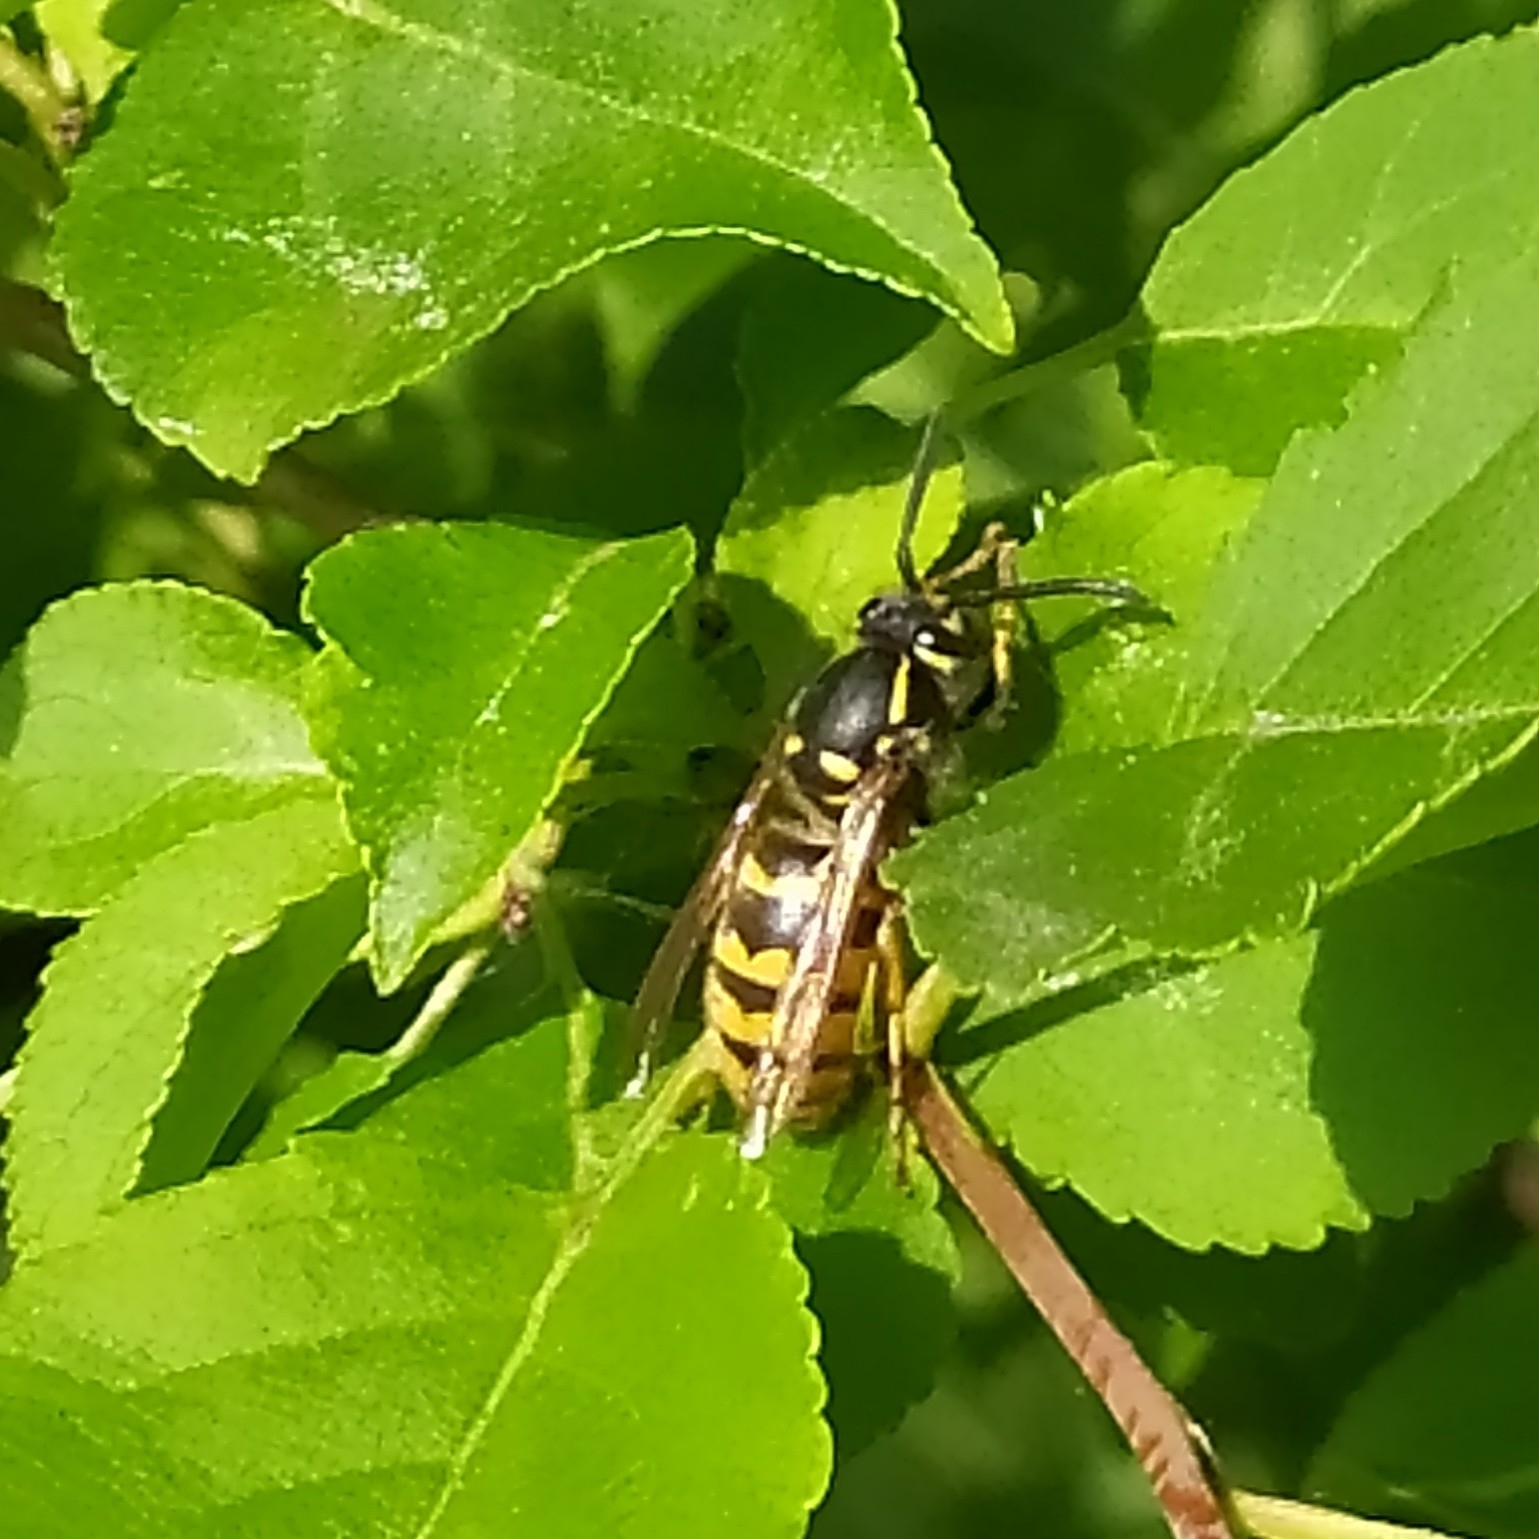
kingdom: Animalia
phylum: Arthropoda
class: Insecta
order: Hymenoptera
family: Vespidae
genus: Vespula
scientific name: Vespula vulgaris
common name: Common wasp
